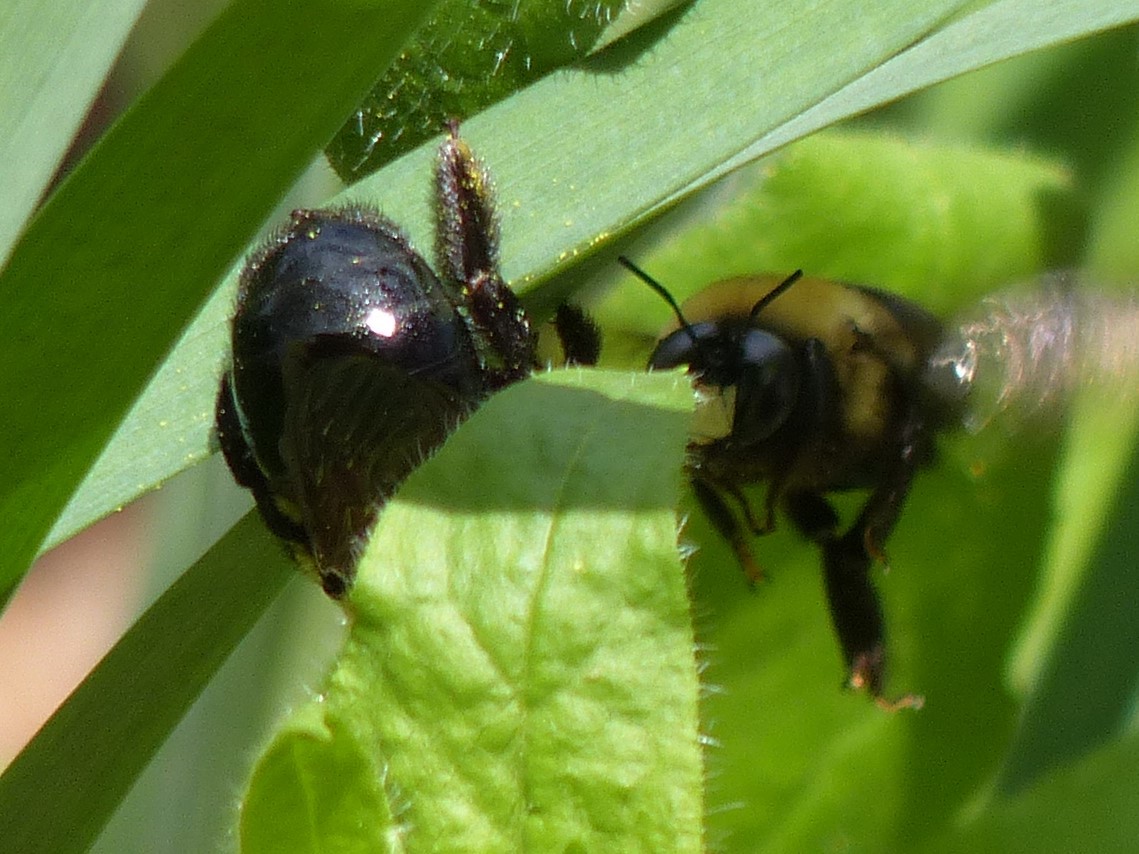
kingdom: Animalia
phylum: Arthropoda
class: Insecta
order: Hymenoptera
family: Apidae
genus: Xylocopa
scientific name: Xylocopa virginica
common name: Carpenter bee
